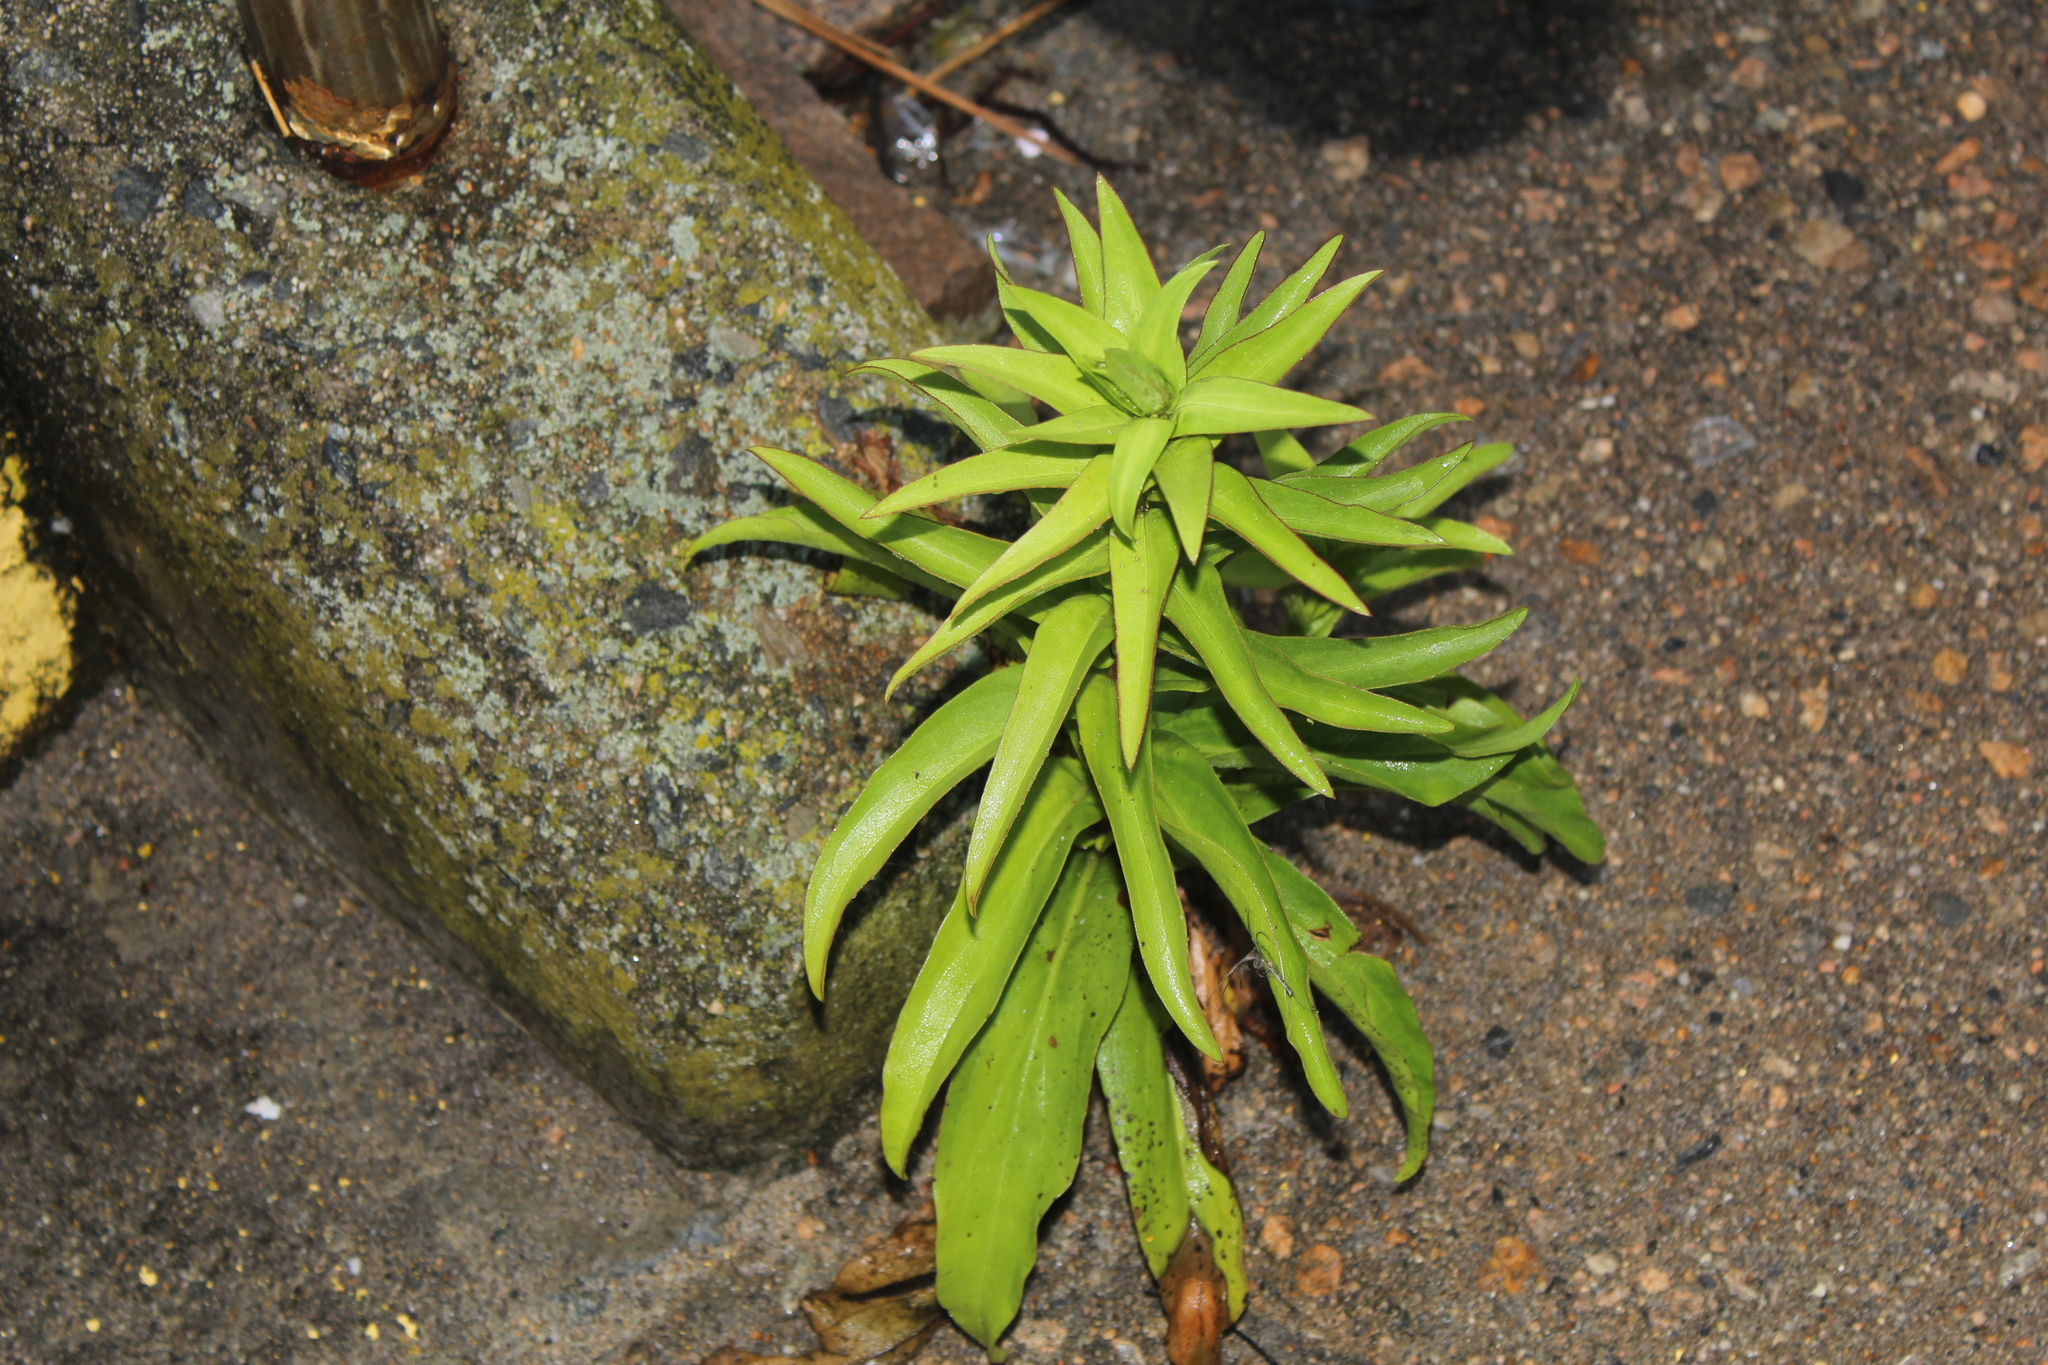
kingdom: Plantae
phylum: Tracheophyta
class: Magnoliopsida
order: Asterales
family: Asteraceae
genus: Solidago
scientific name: Solidago sempervirens
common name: Salt-marsh goldenrod
